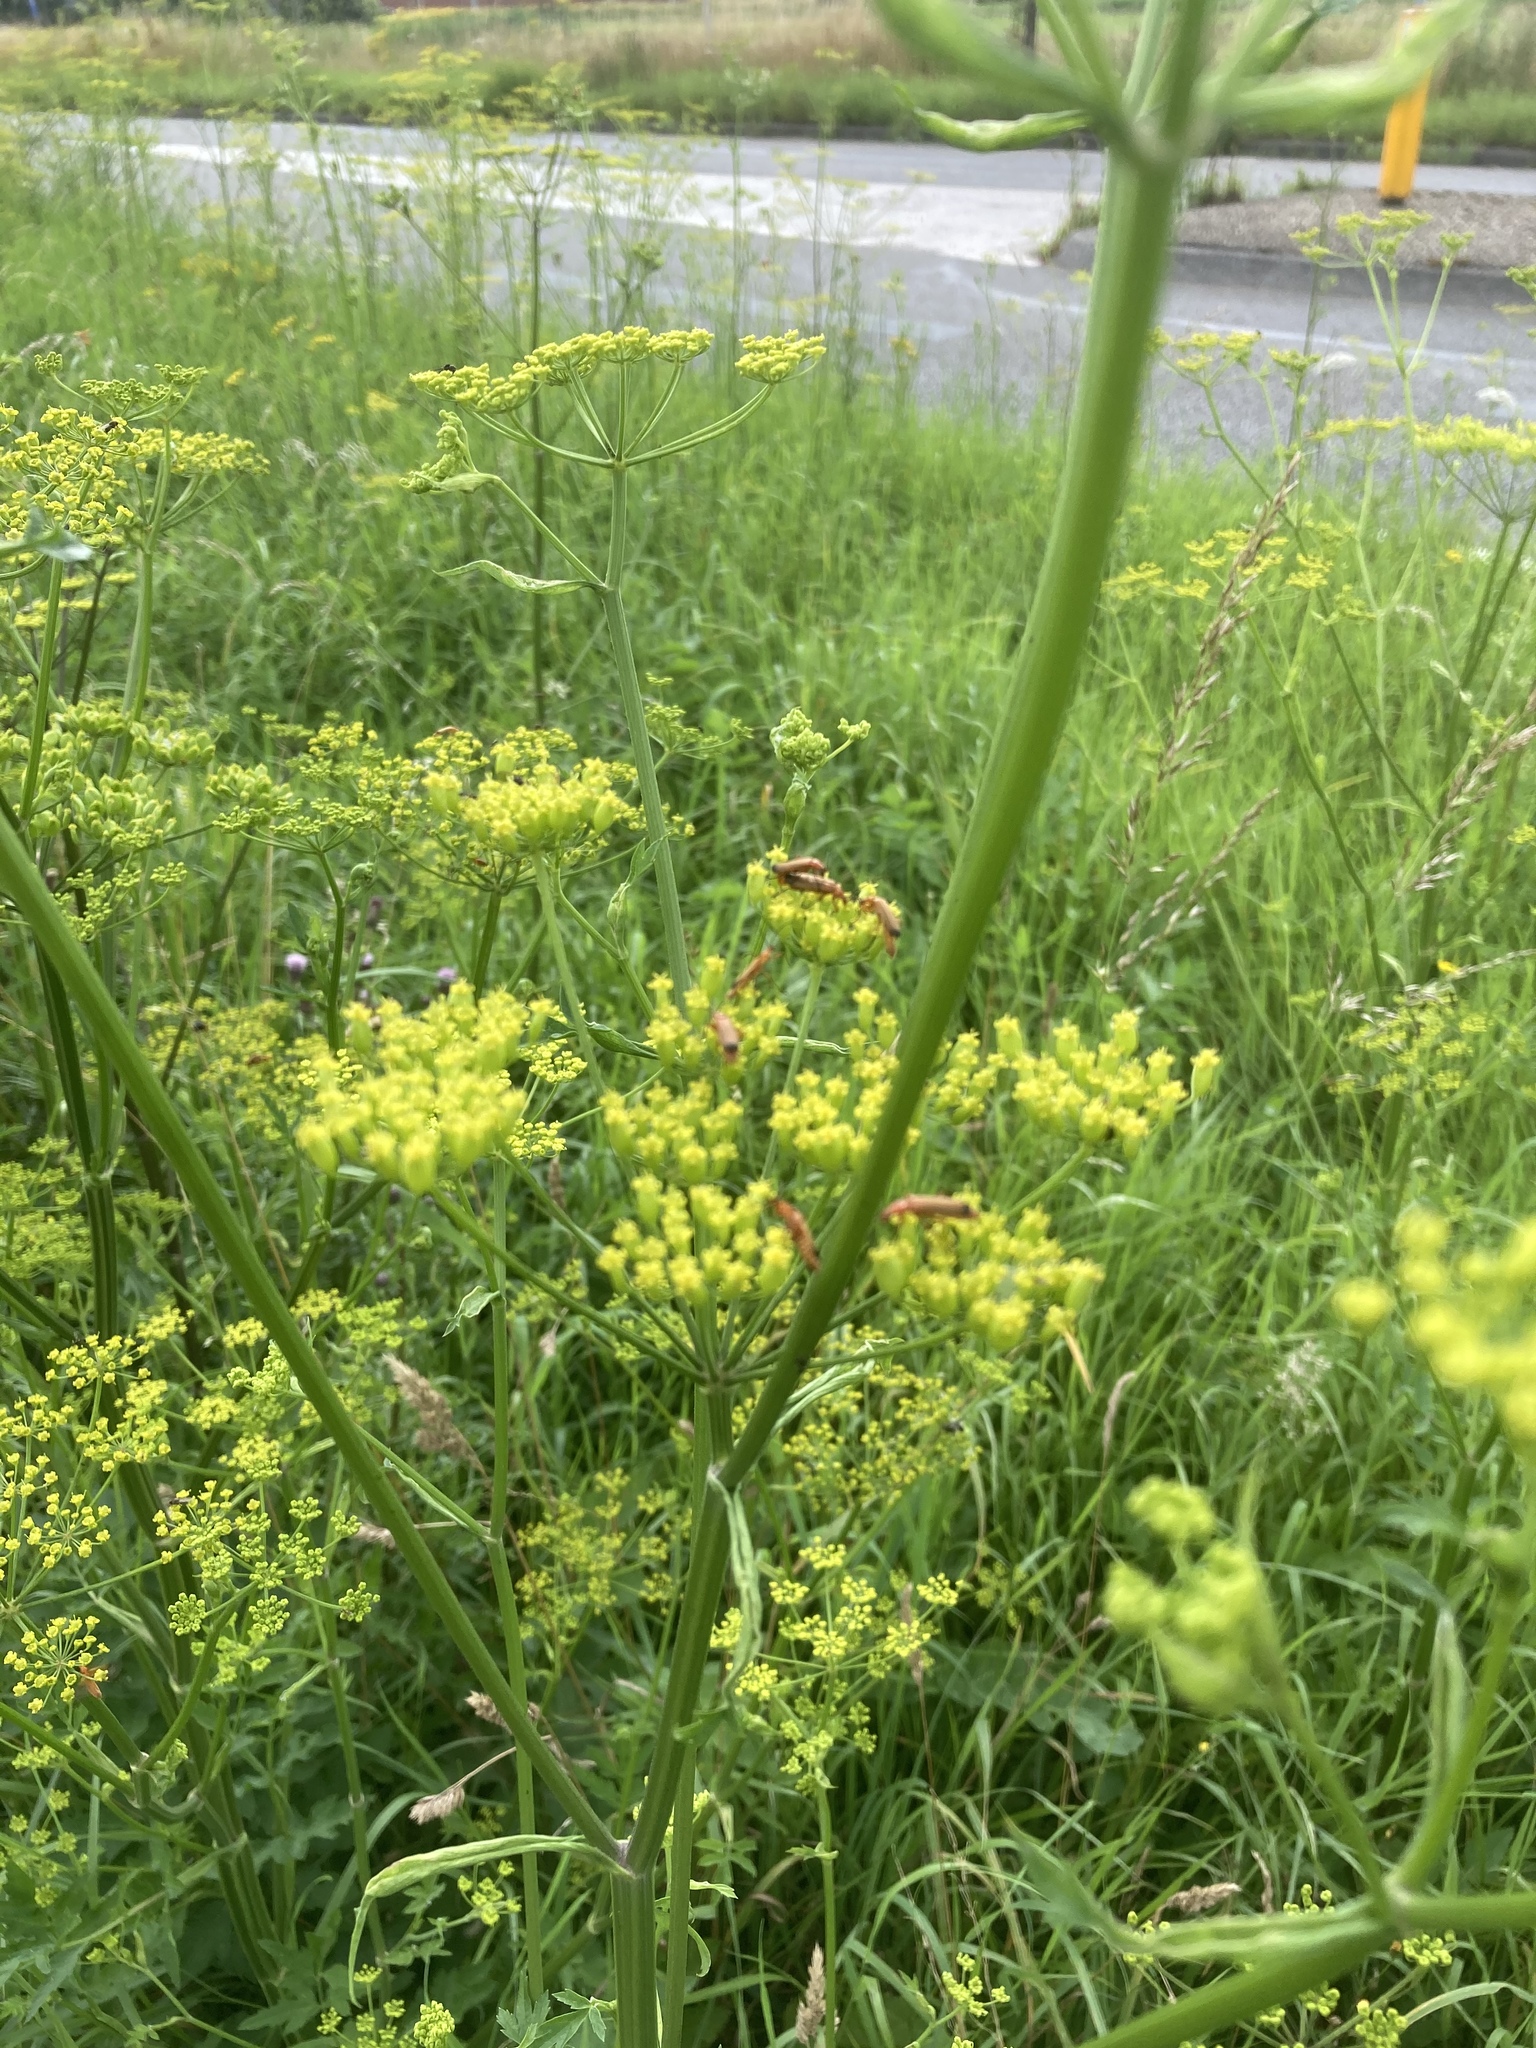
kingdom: Animalia
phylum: Arthropoda
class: Insecta
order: Coleoptera
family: Cantharidae
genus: Rhagonycha
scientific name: Rhagonycha fulva
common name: Common red soldier beetle
